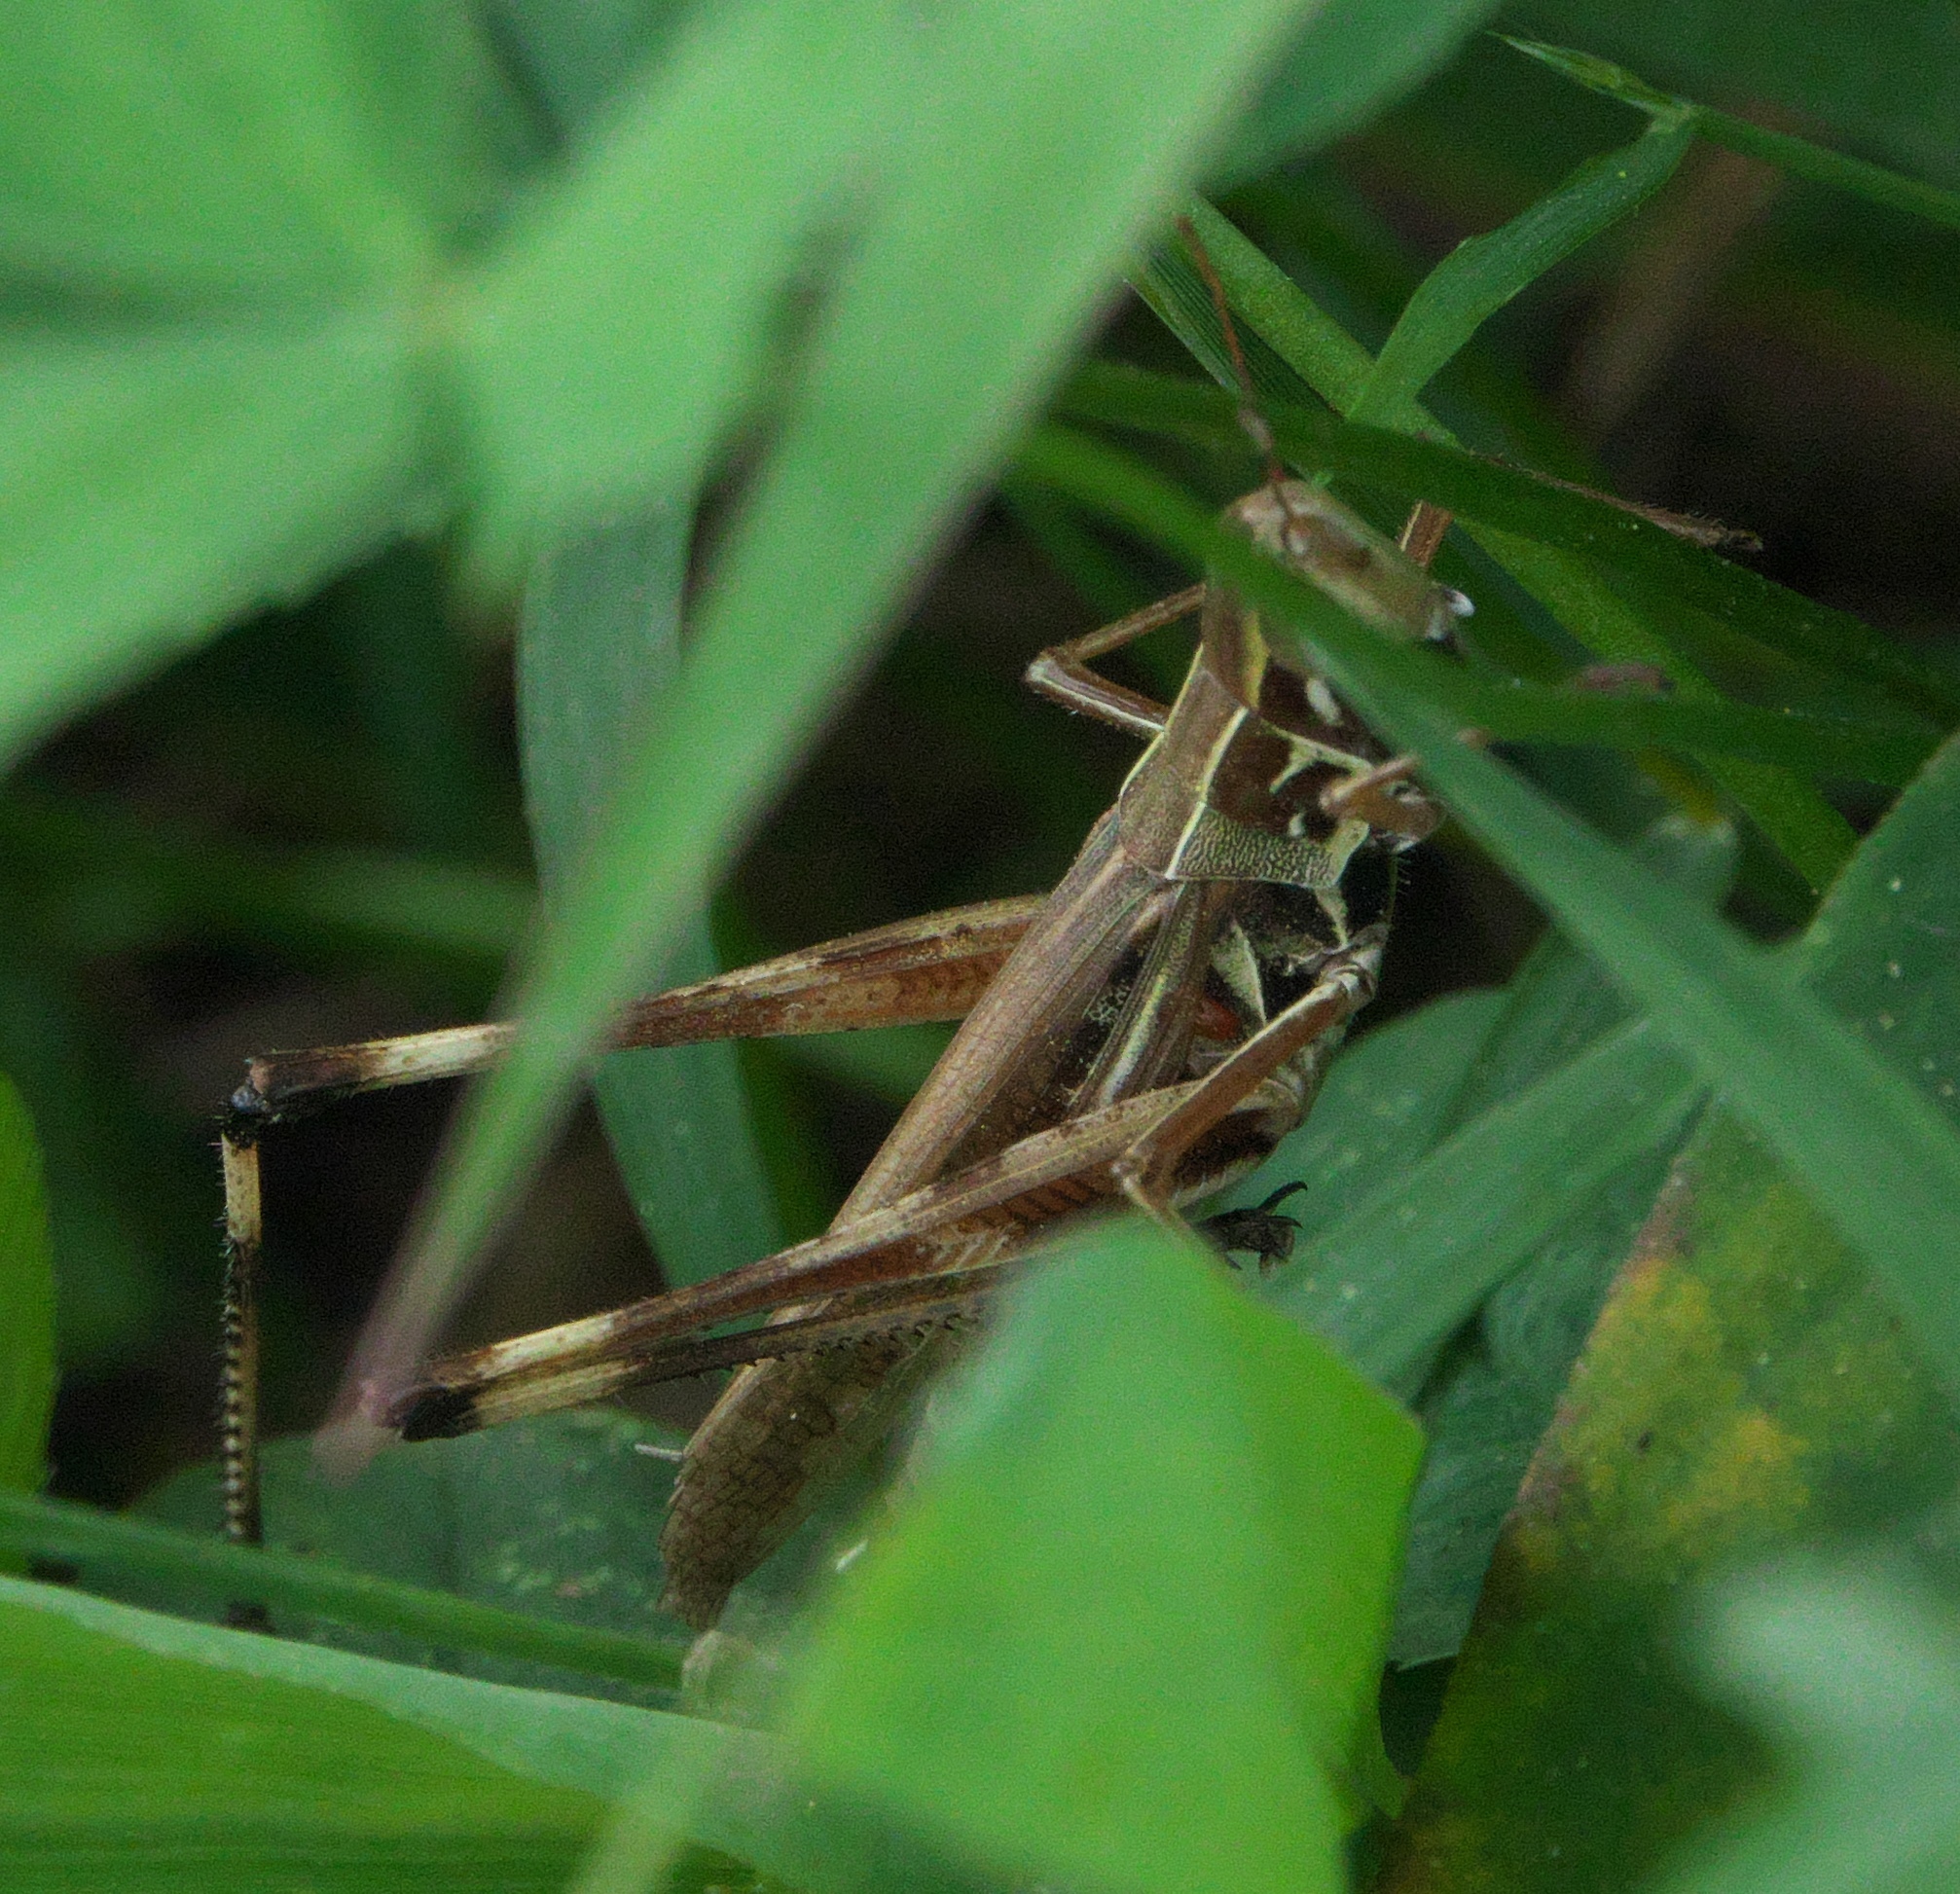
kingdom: Animalia
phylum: Arthropoda
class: Insecta
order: Orthoptera
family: Acrididae
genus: Syrbula
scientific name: Syrbula admirabilis
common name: Handsome grasshopper
